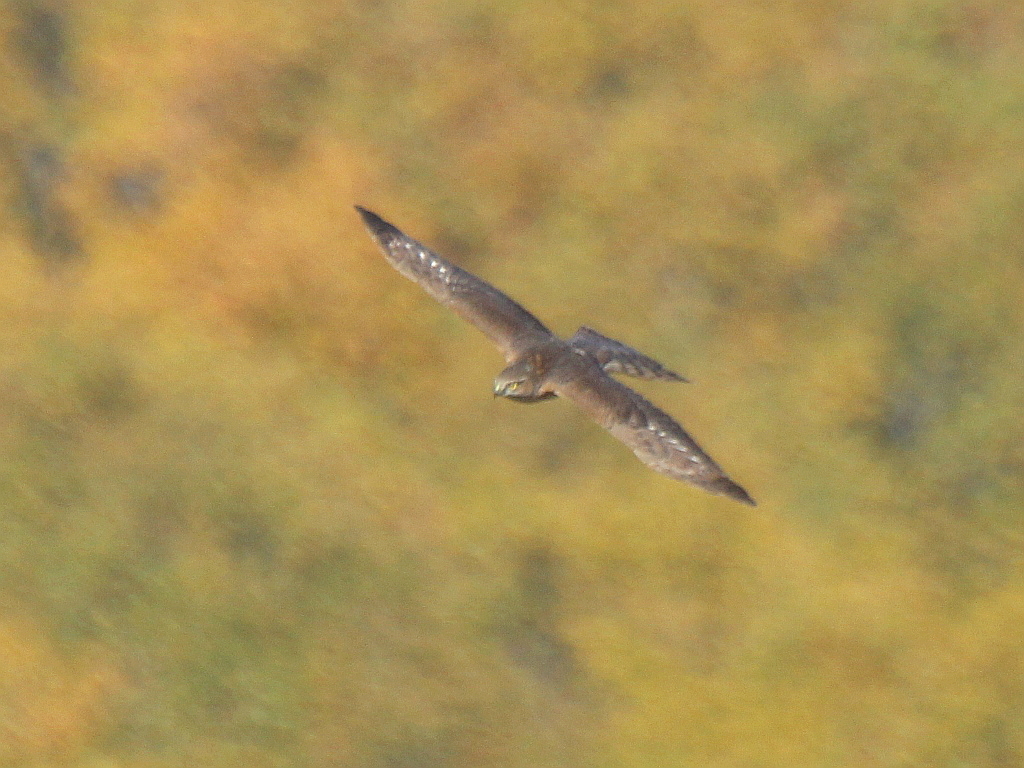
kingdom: Animalia
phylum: Chordata
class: Aves
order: Accipitriformes
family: Accipitridae
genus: Accipiter
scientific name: Accipiter nisus
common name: Eurasian sparrowhawk
